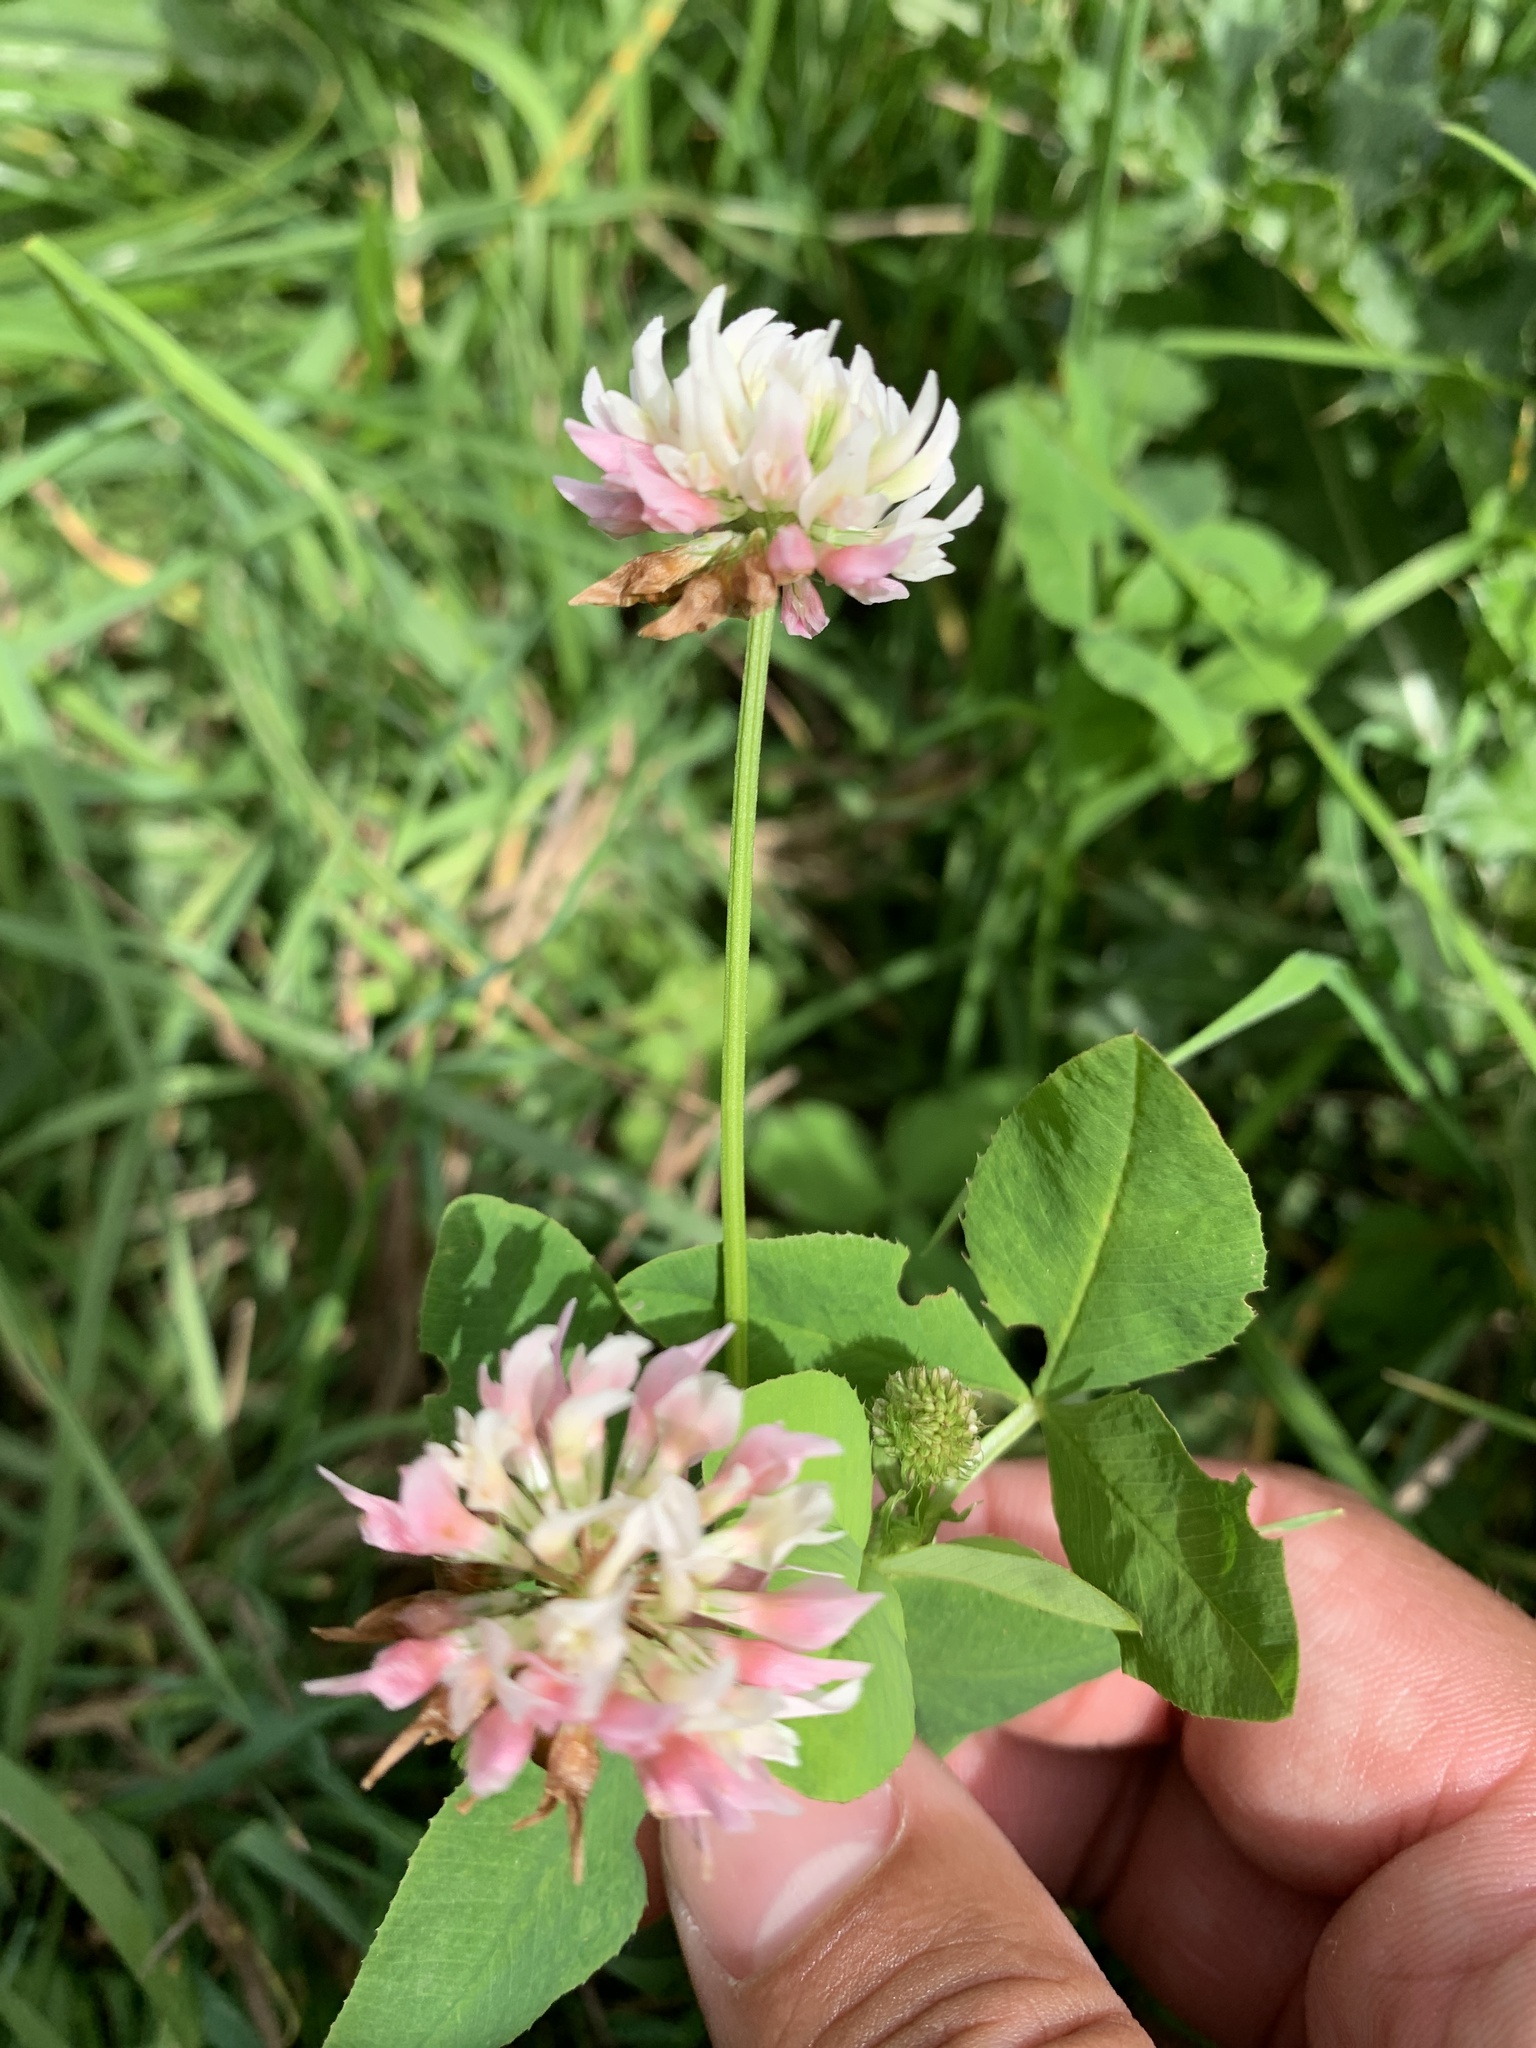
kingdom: Plantae
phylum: Tracheophyta
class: Magnoliopsida
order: Fabales
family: Fabaceae
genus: Trifolium
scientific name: Trifolium hybridum
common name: Alsike clover
